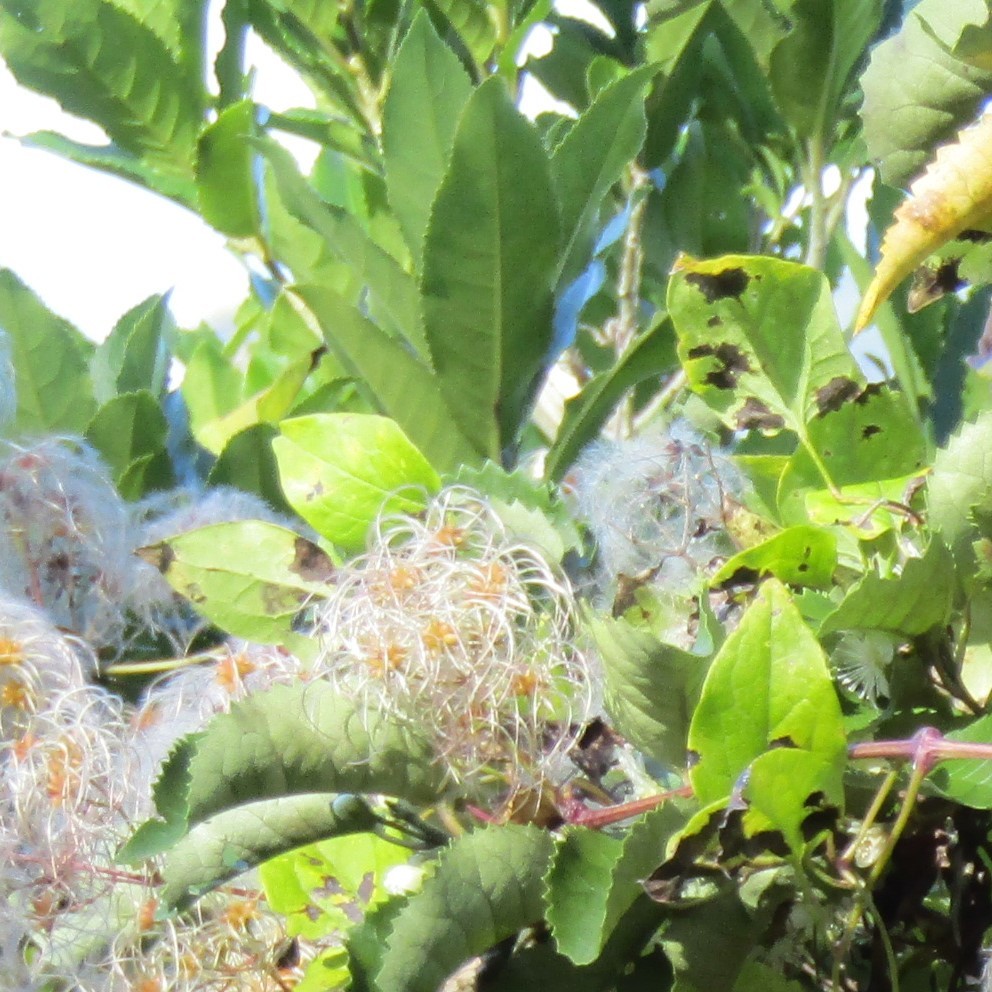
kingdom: Plantae
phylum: Tracheophyta
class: Magnoliopsida
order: Malpighiales
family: Violaceae
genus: Melicytus
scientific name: Melicytus ramiflorus
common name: Mahoe
